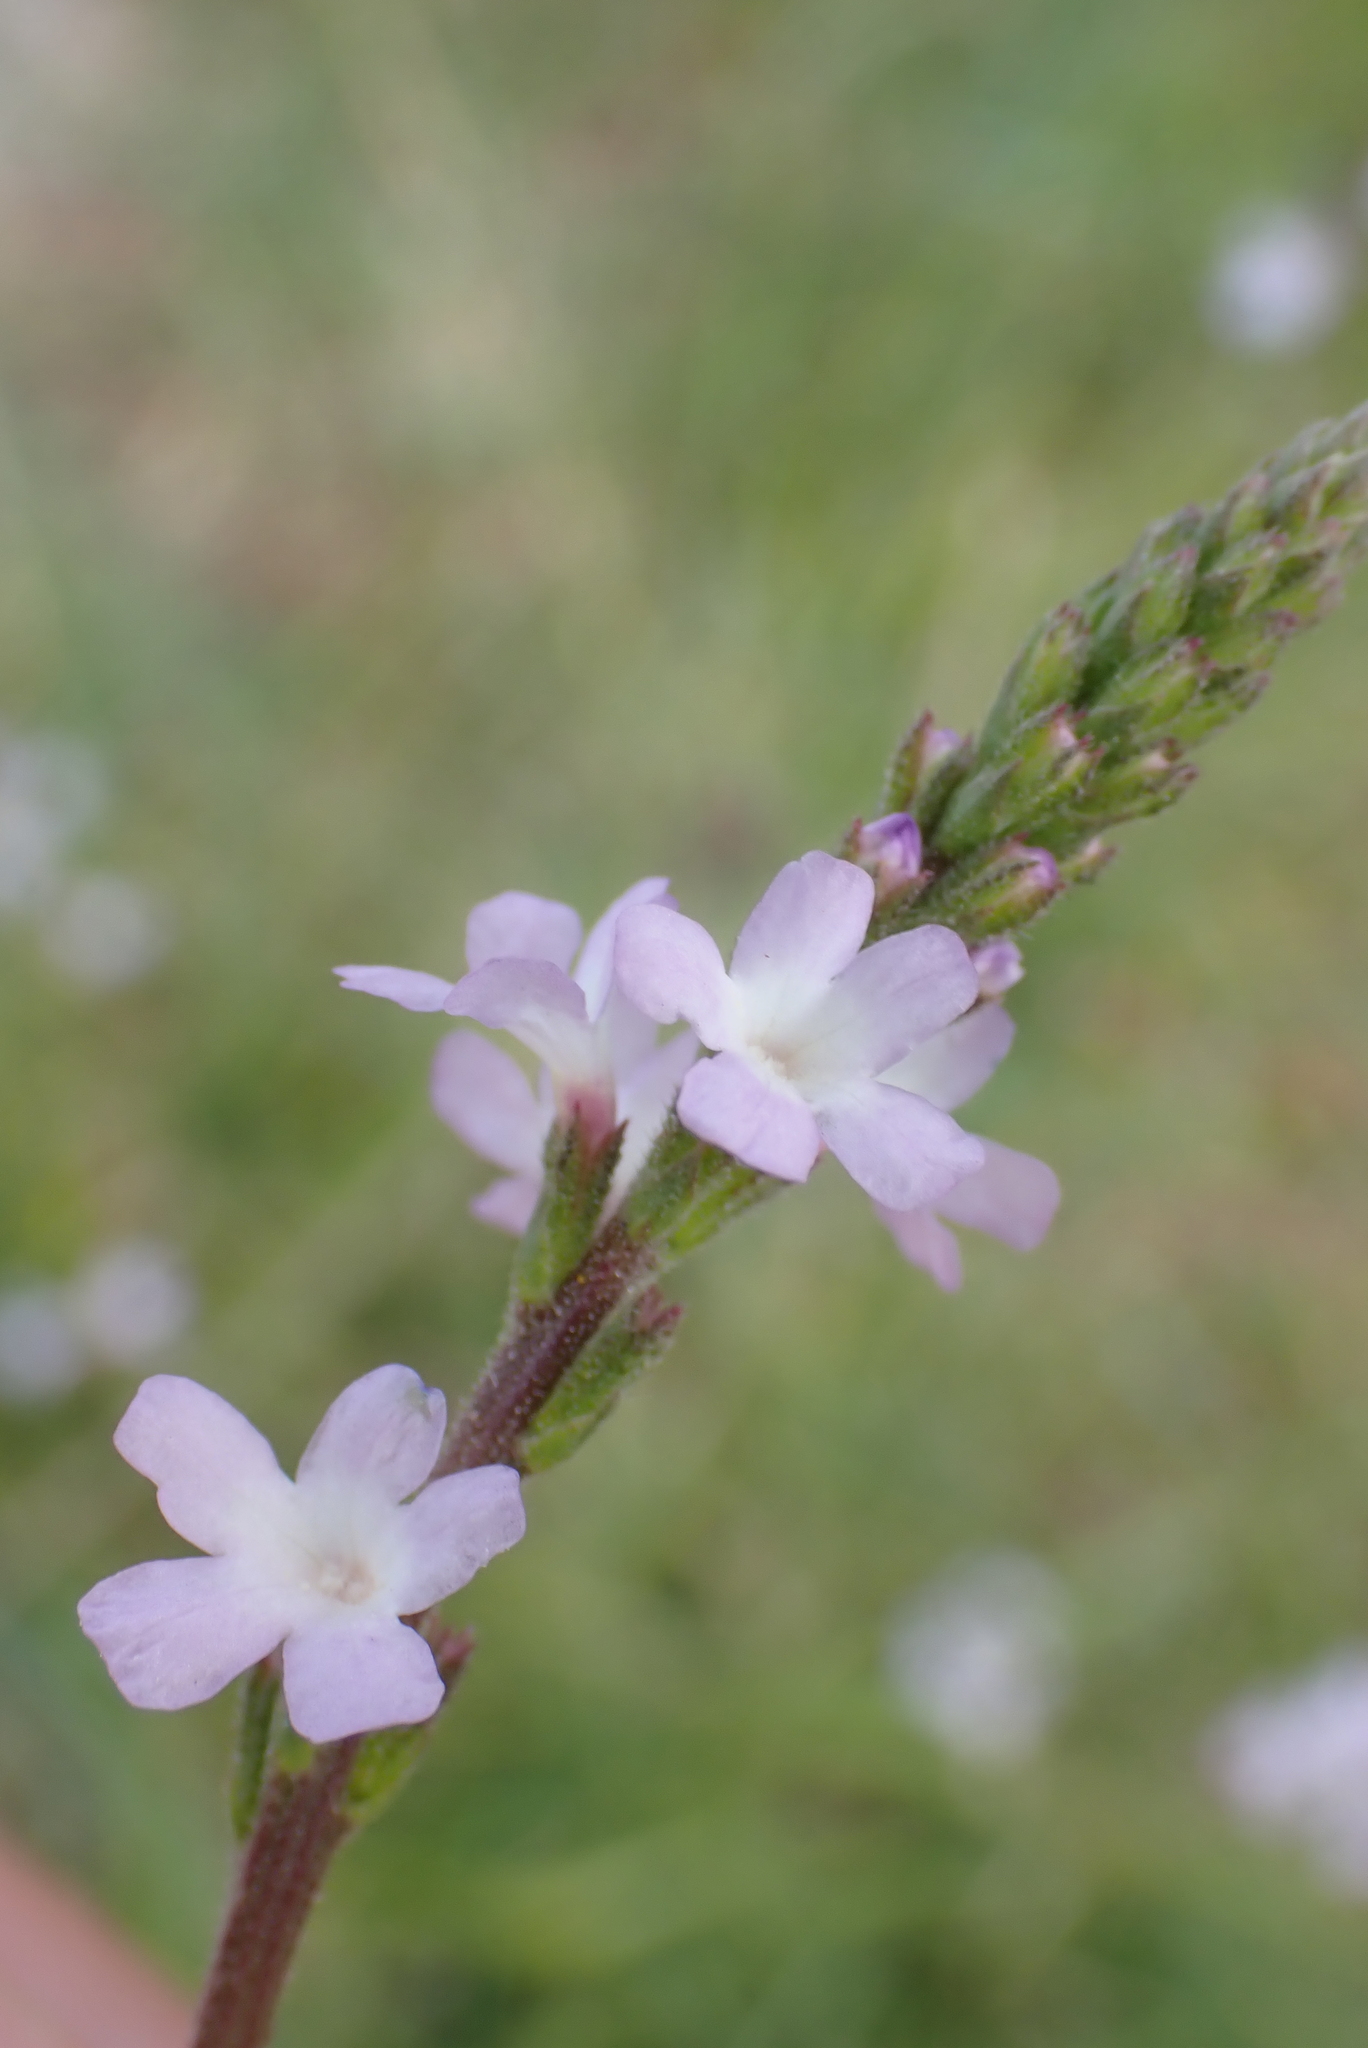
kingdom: Plantae
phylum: Tracheophyta
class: Magnoliopsida
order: Lamiales
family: Verbenaceae
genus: Verbena
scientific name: Verbena officinalis
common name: Vervain
